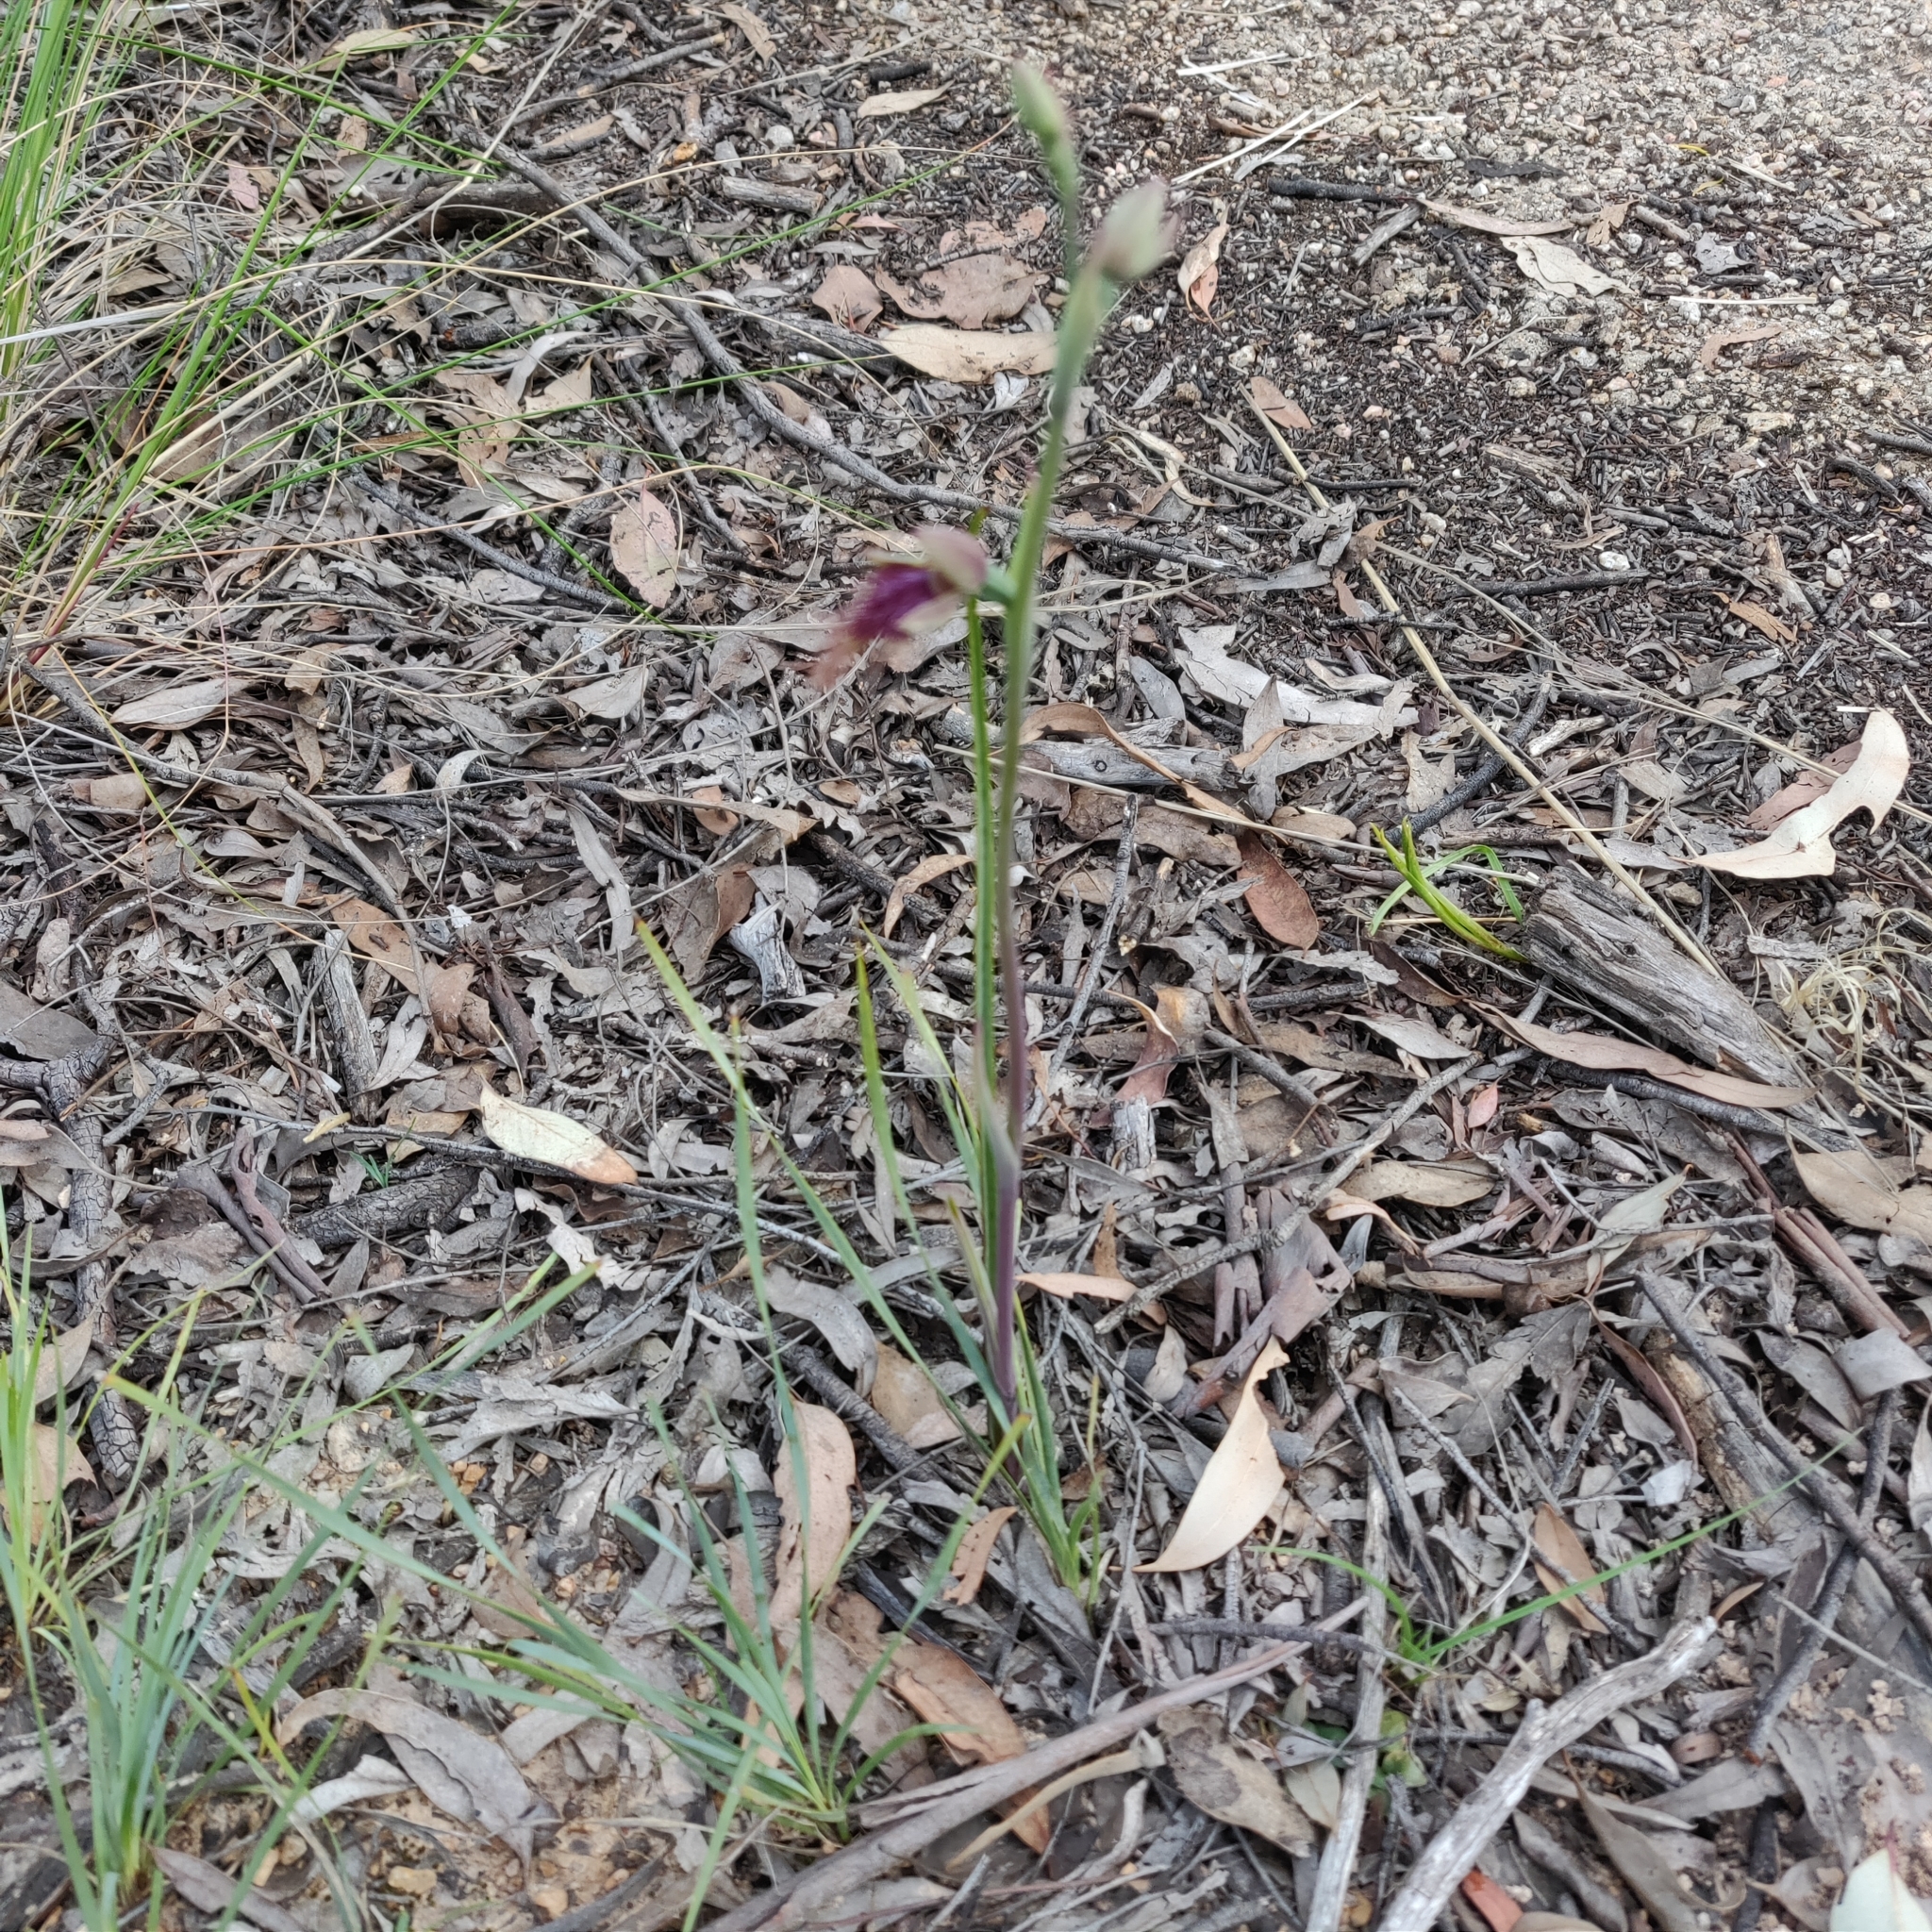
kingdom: Plantae
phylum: Tracheophyta
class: Liliopsida
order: Asparagales
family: Orchidaceae
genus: Calochilus
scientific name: Calochilus robertsonii
